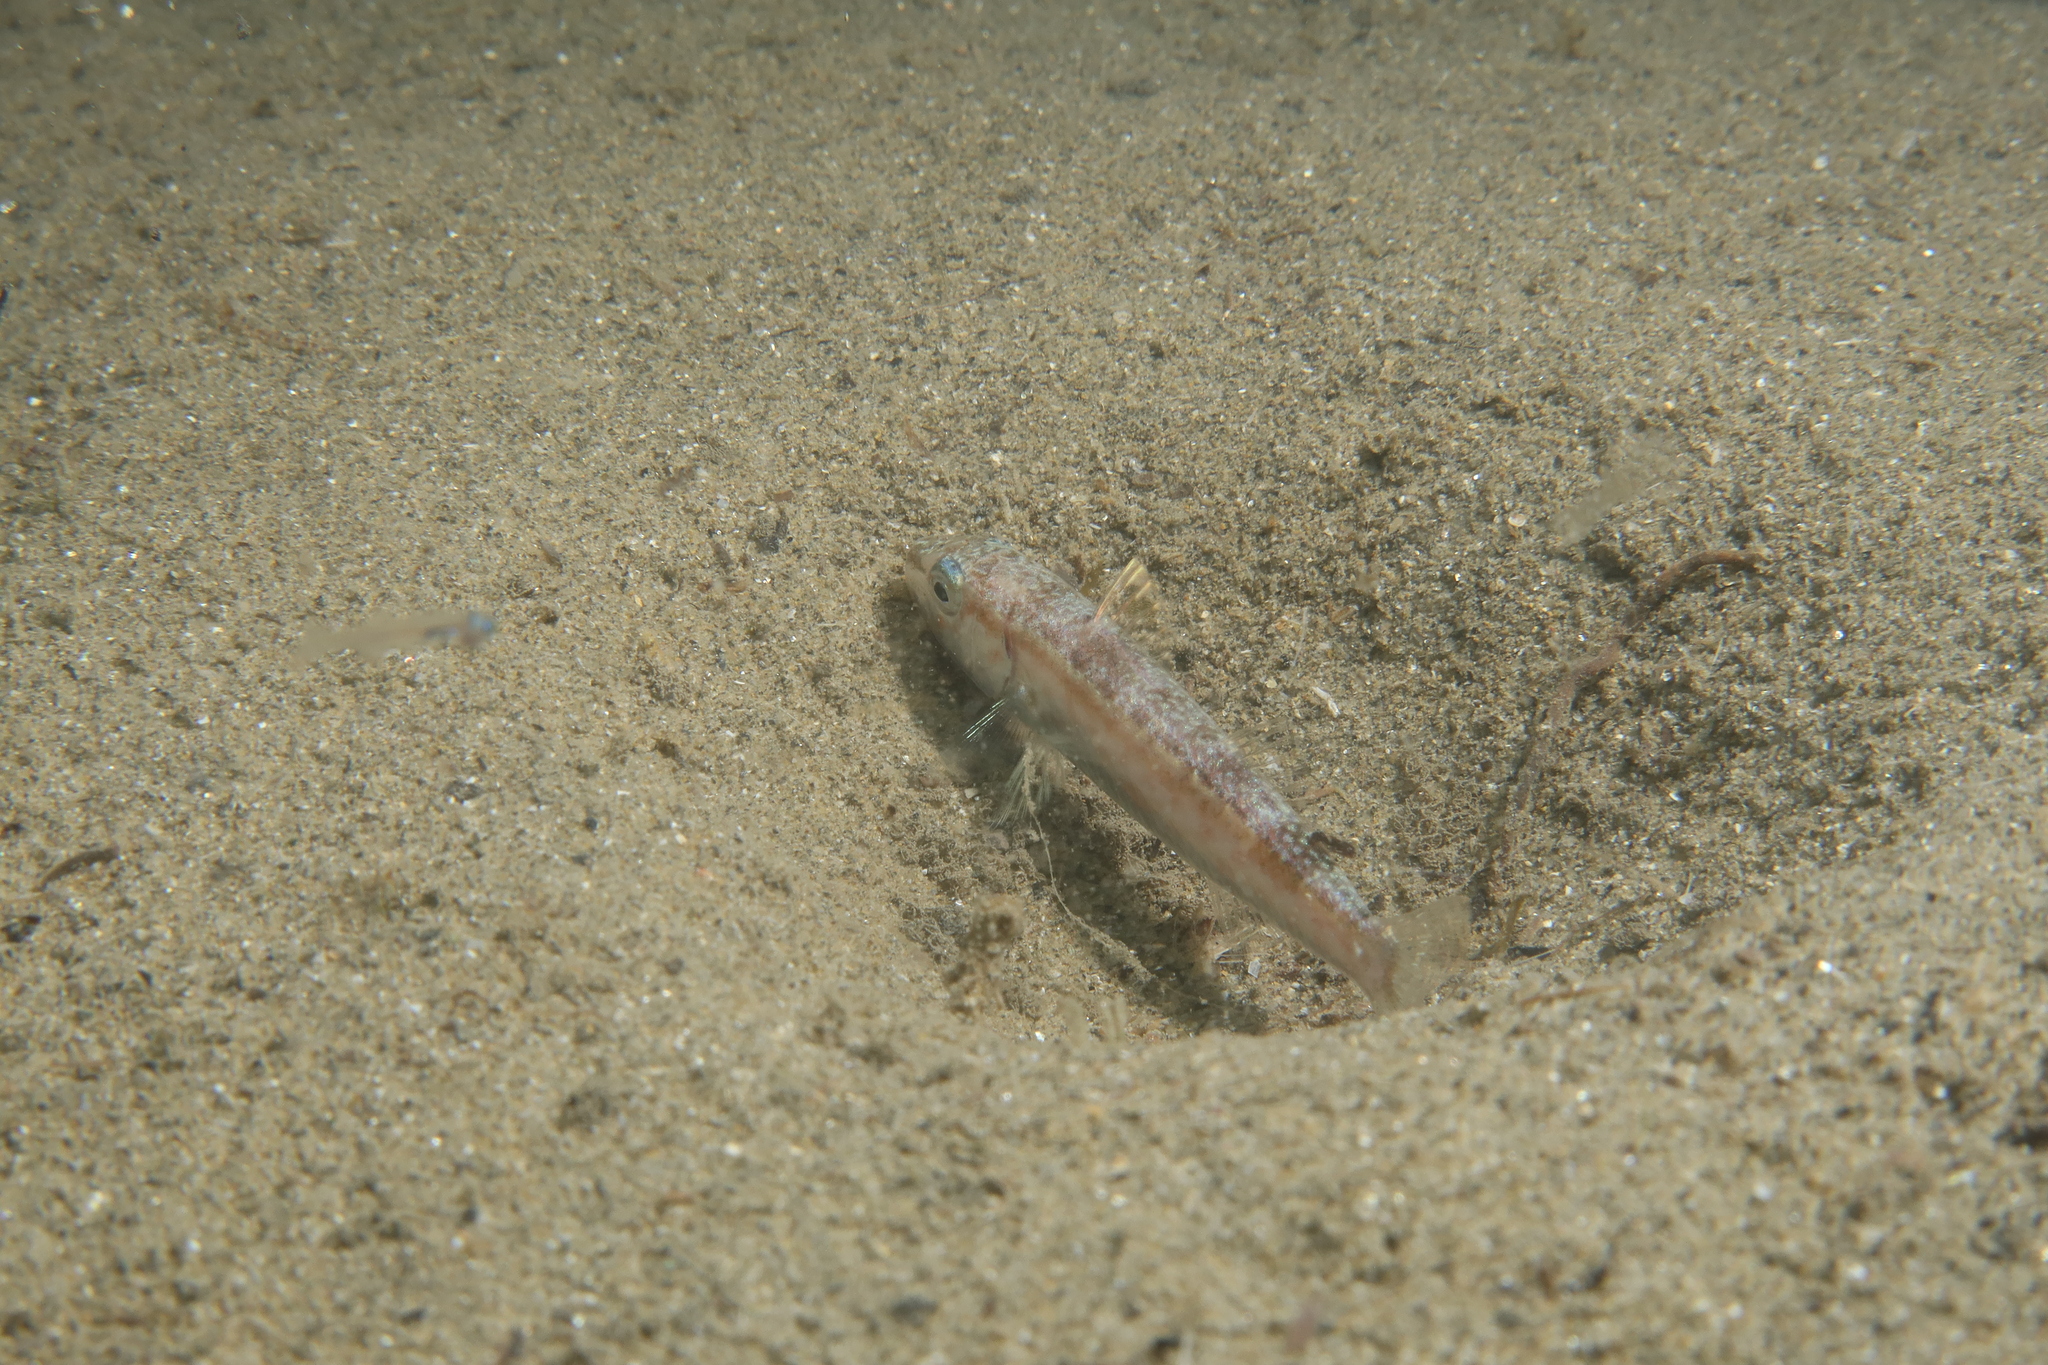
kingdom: Animalia
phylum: Chordata
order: Perciformes
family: Mullidae
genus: Mullus
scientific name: Mullus barbatus
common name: Blunt-snouted mullet
